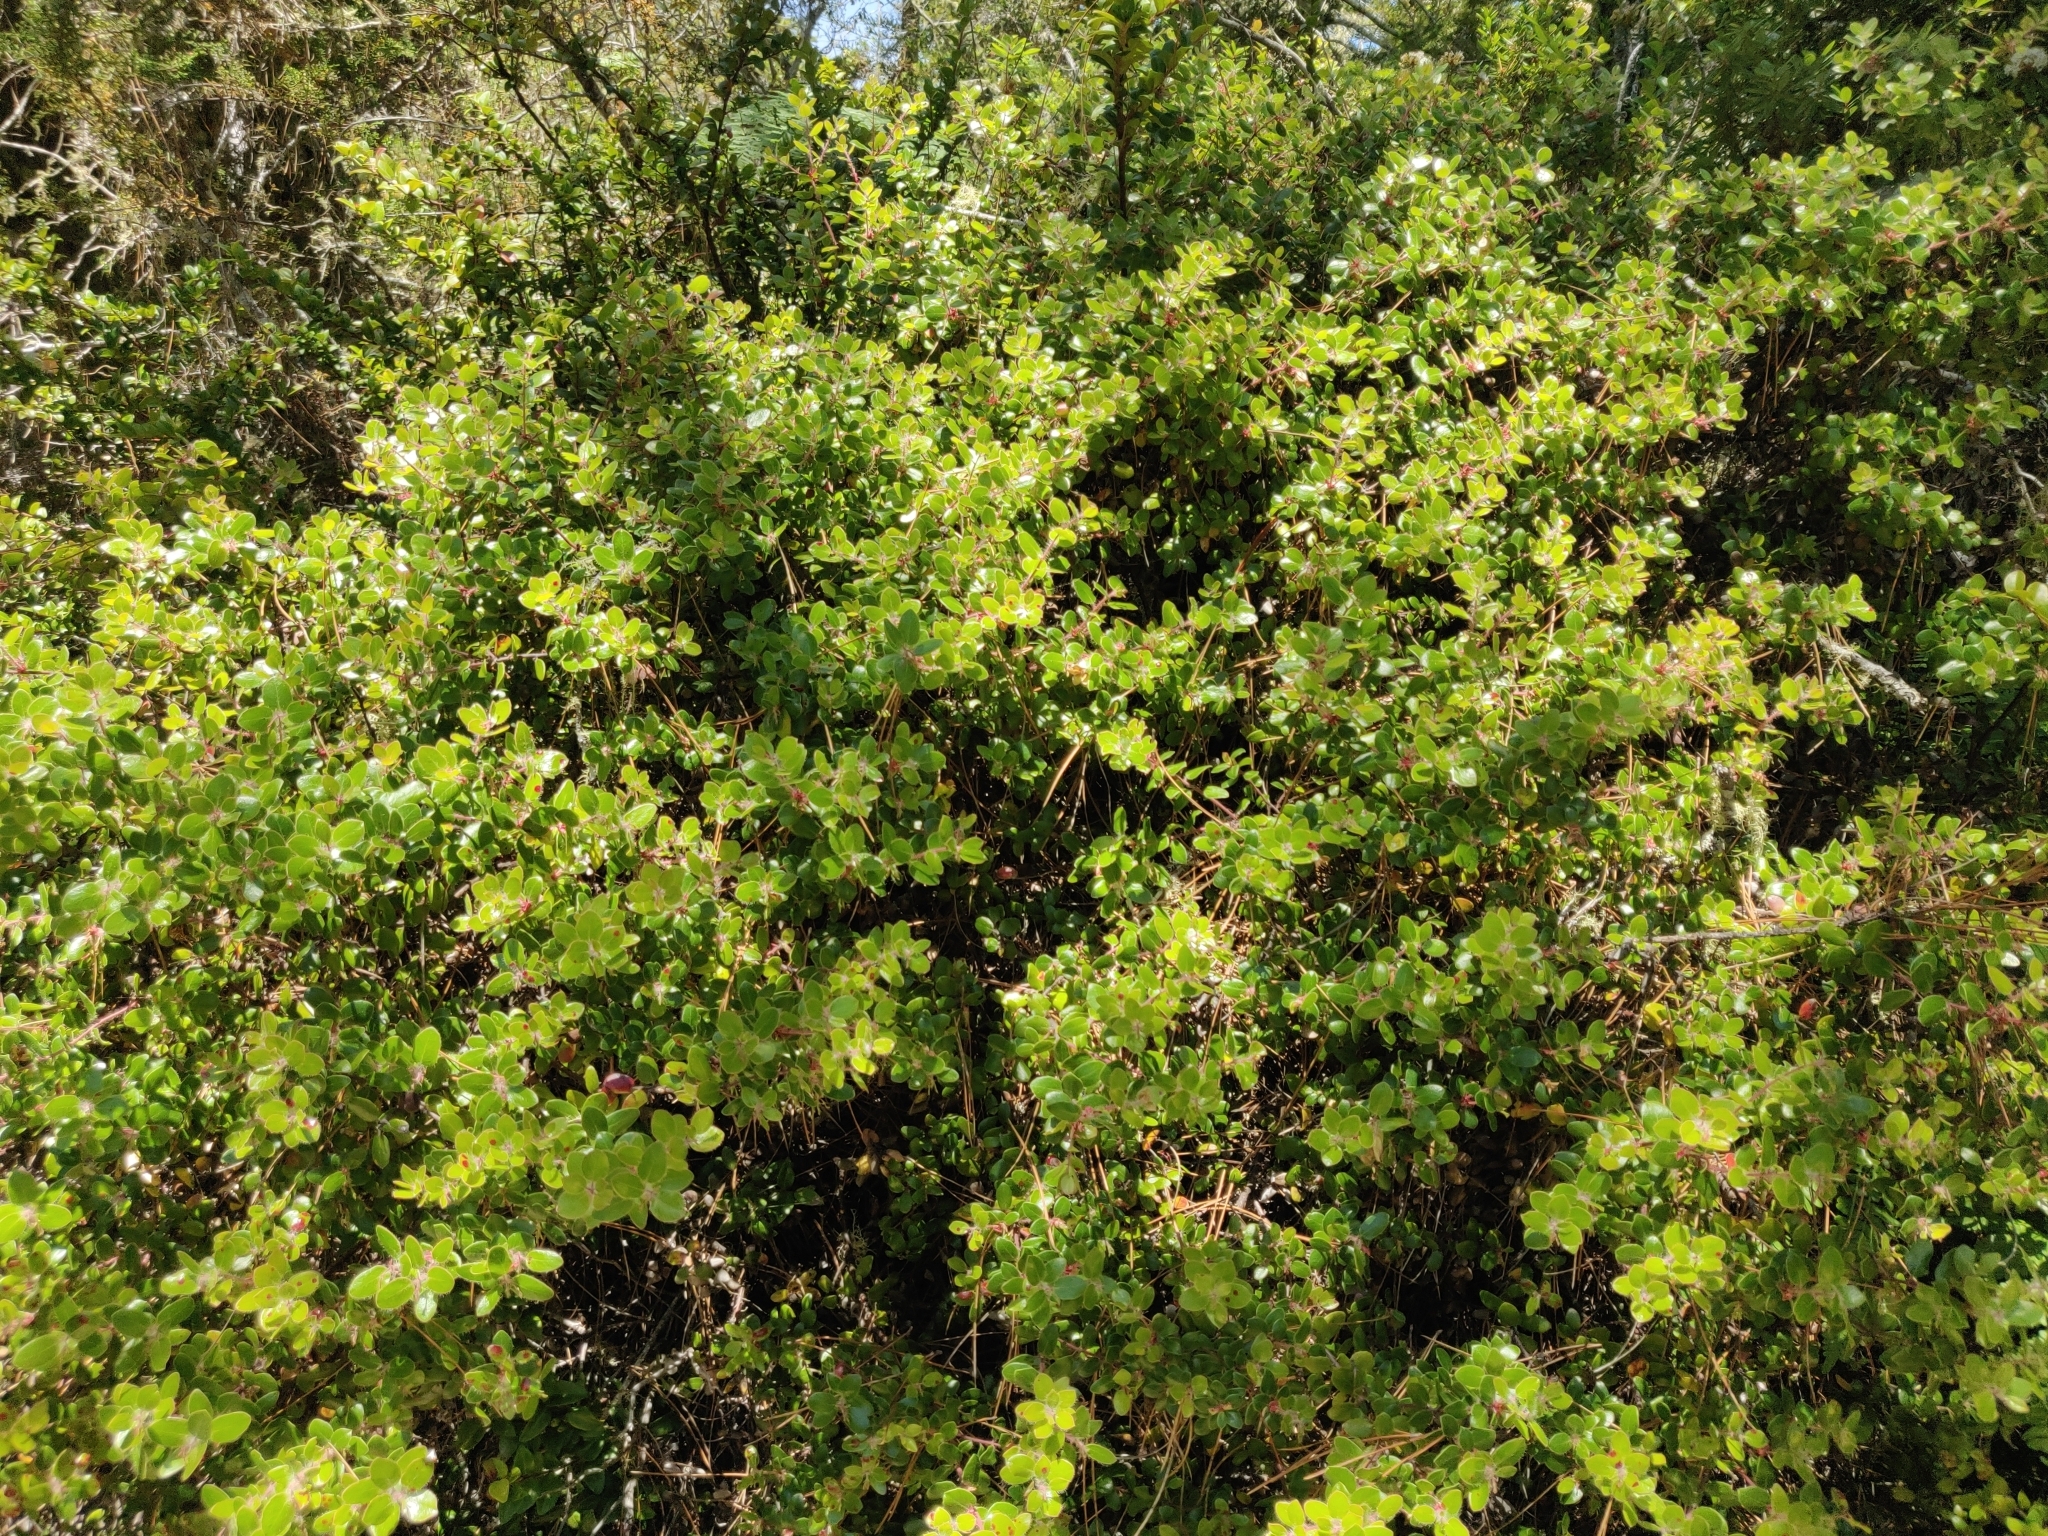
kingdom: Plantae
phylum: Tracheophyta
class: Magnoliopsida
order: Ericales
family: Ericaceae
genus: Arctostaphylos
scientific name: Arctostaphylos nummularia
